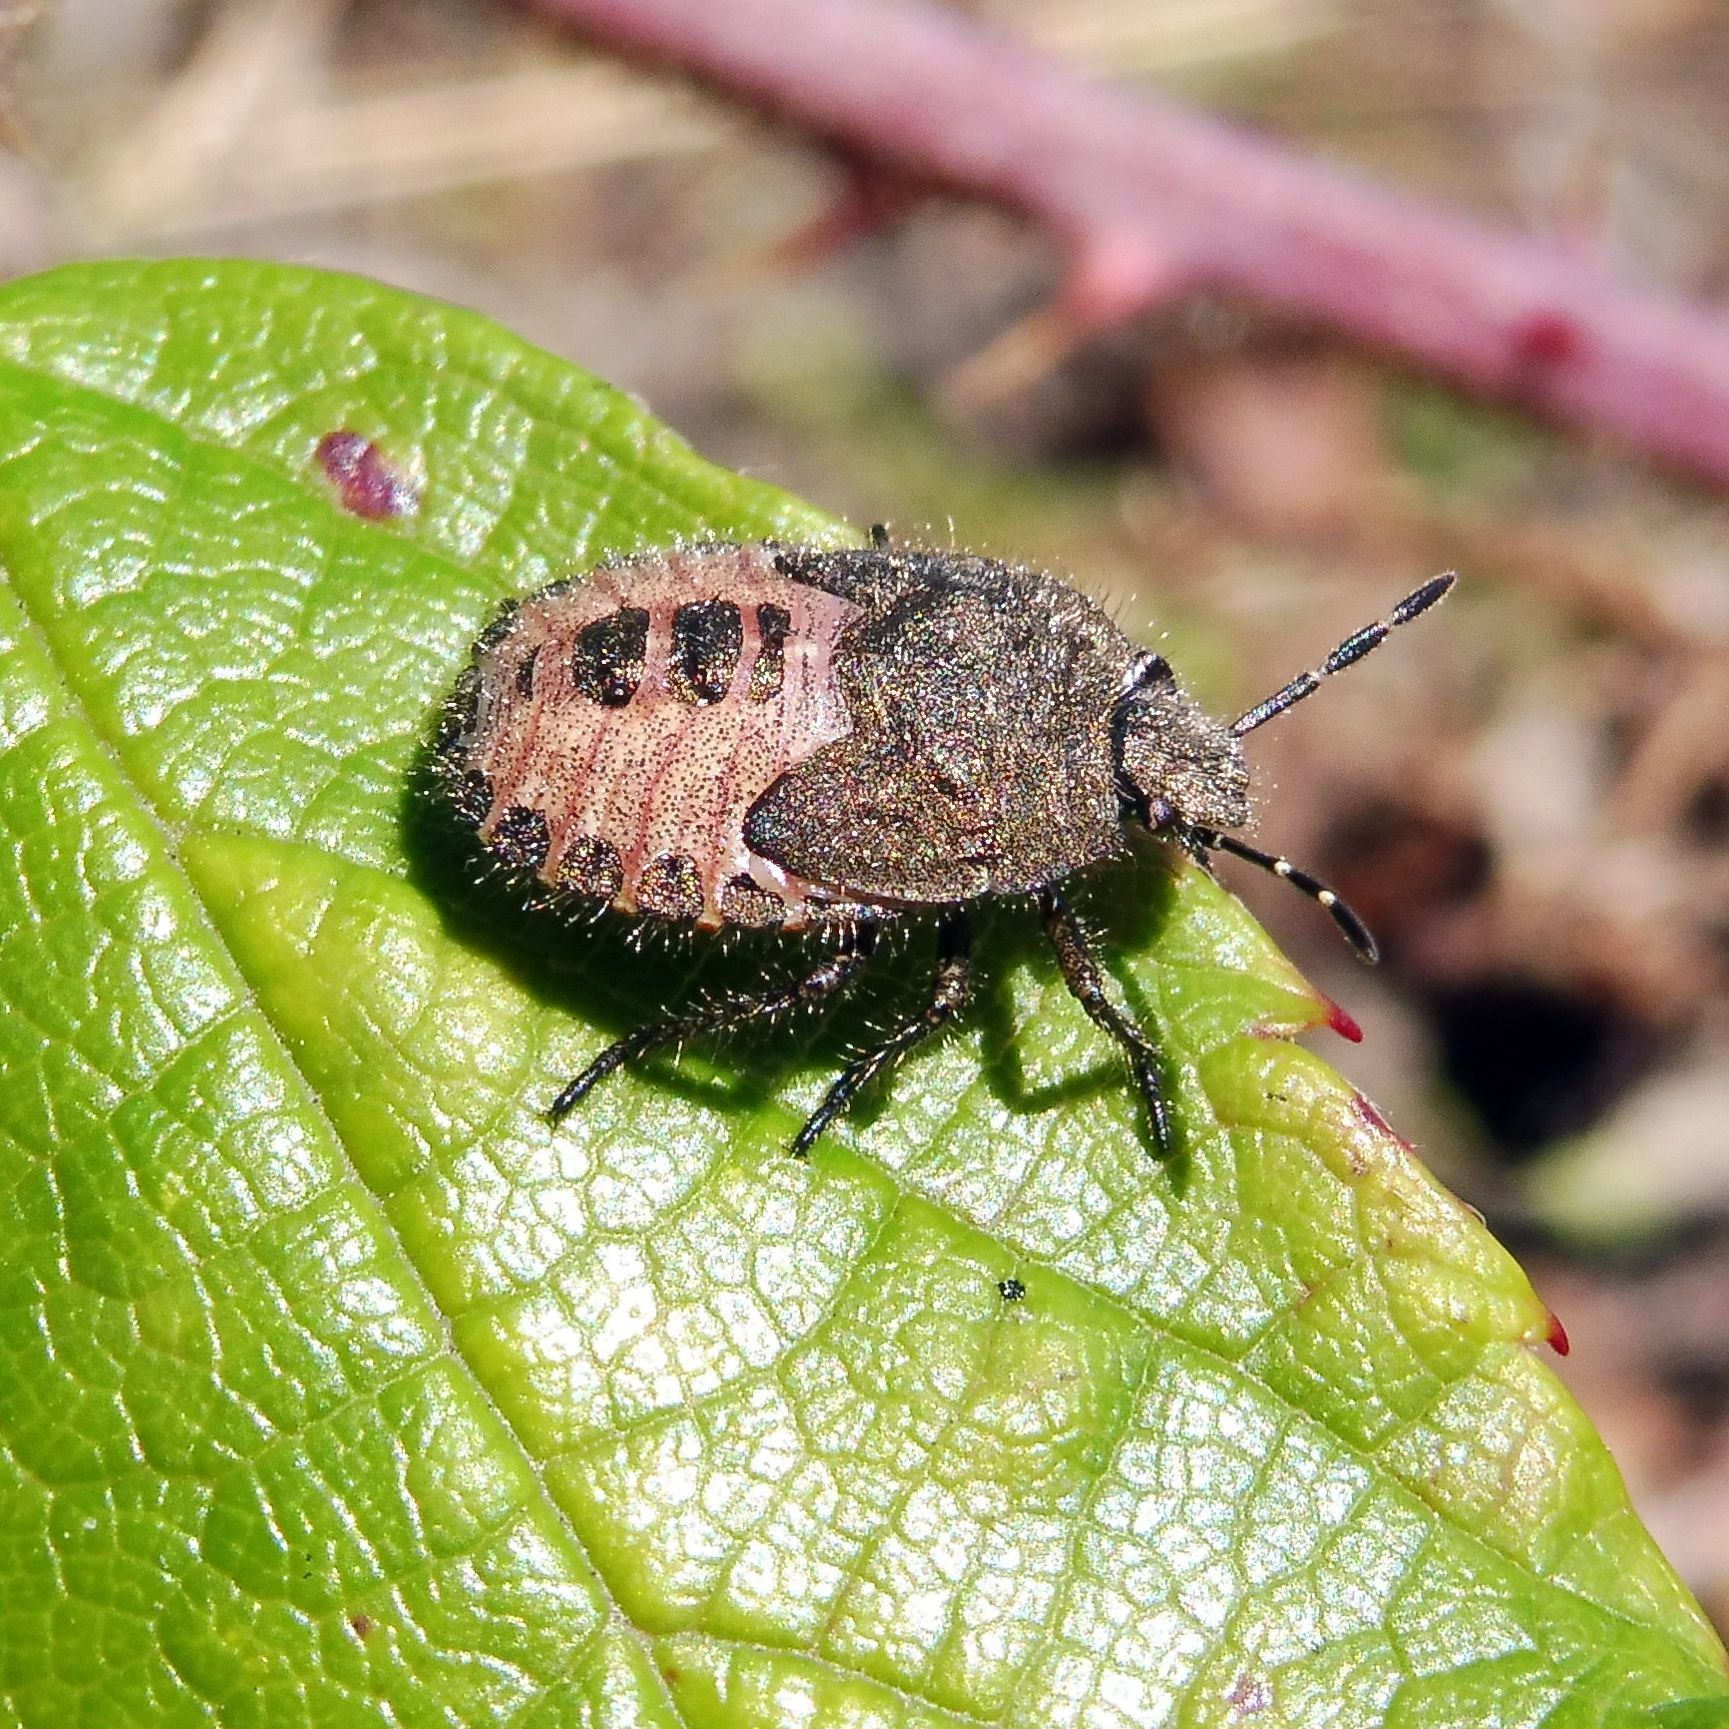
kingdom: Animalia
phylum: Arthropoda
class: Insecta
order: Hemiptera
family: Pentatomidae
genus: Dolycoris
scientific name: Dolycoris baccarum
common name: Sloe bug
